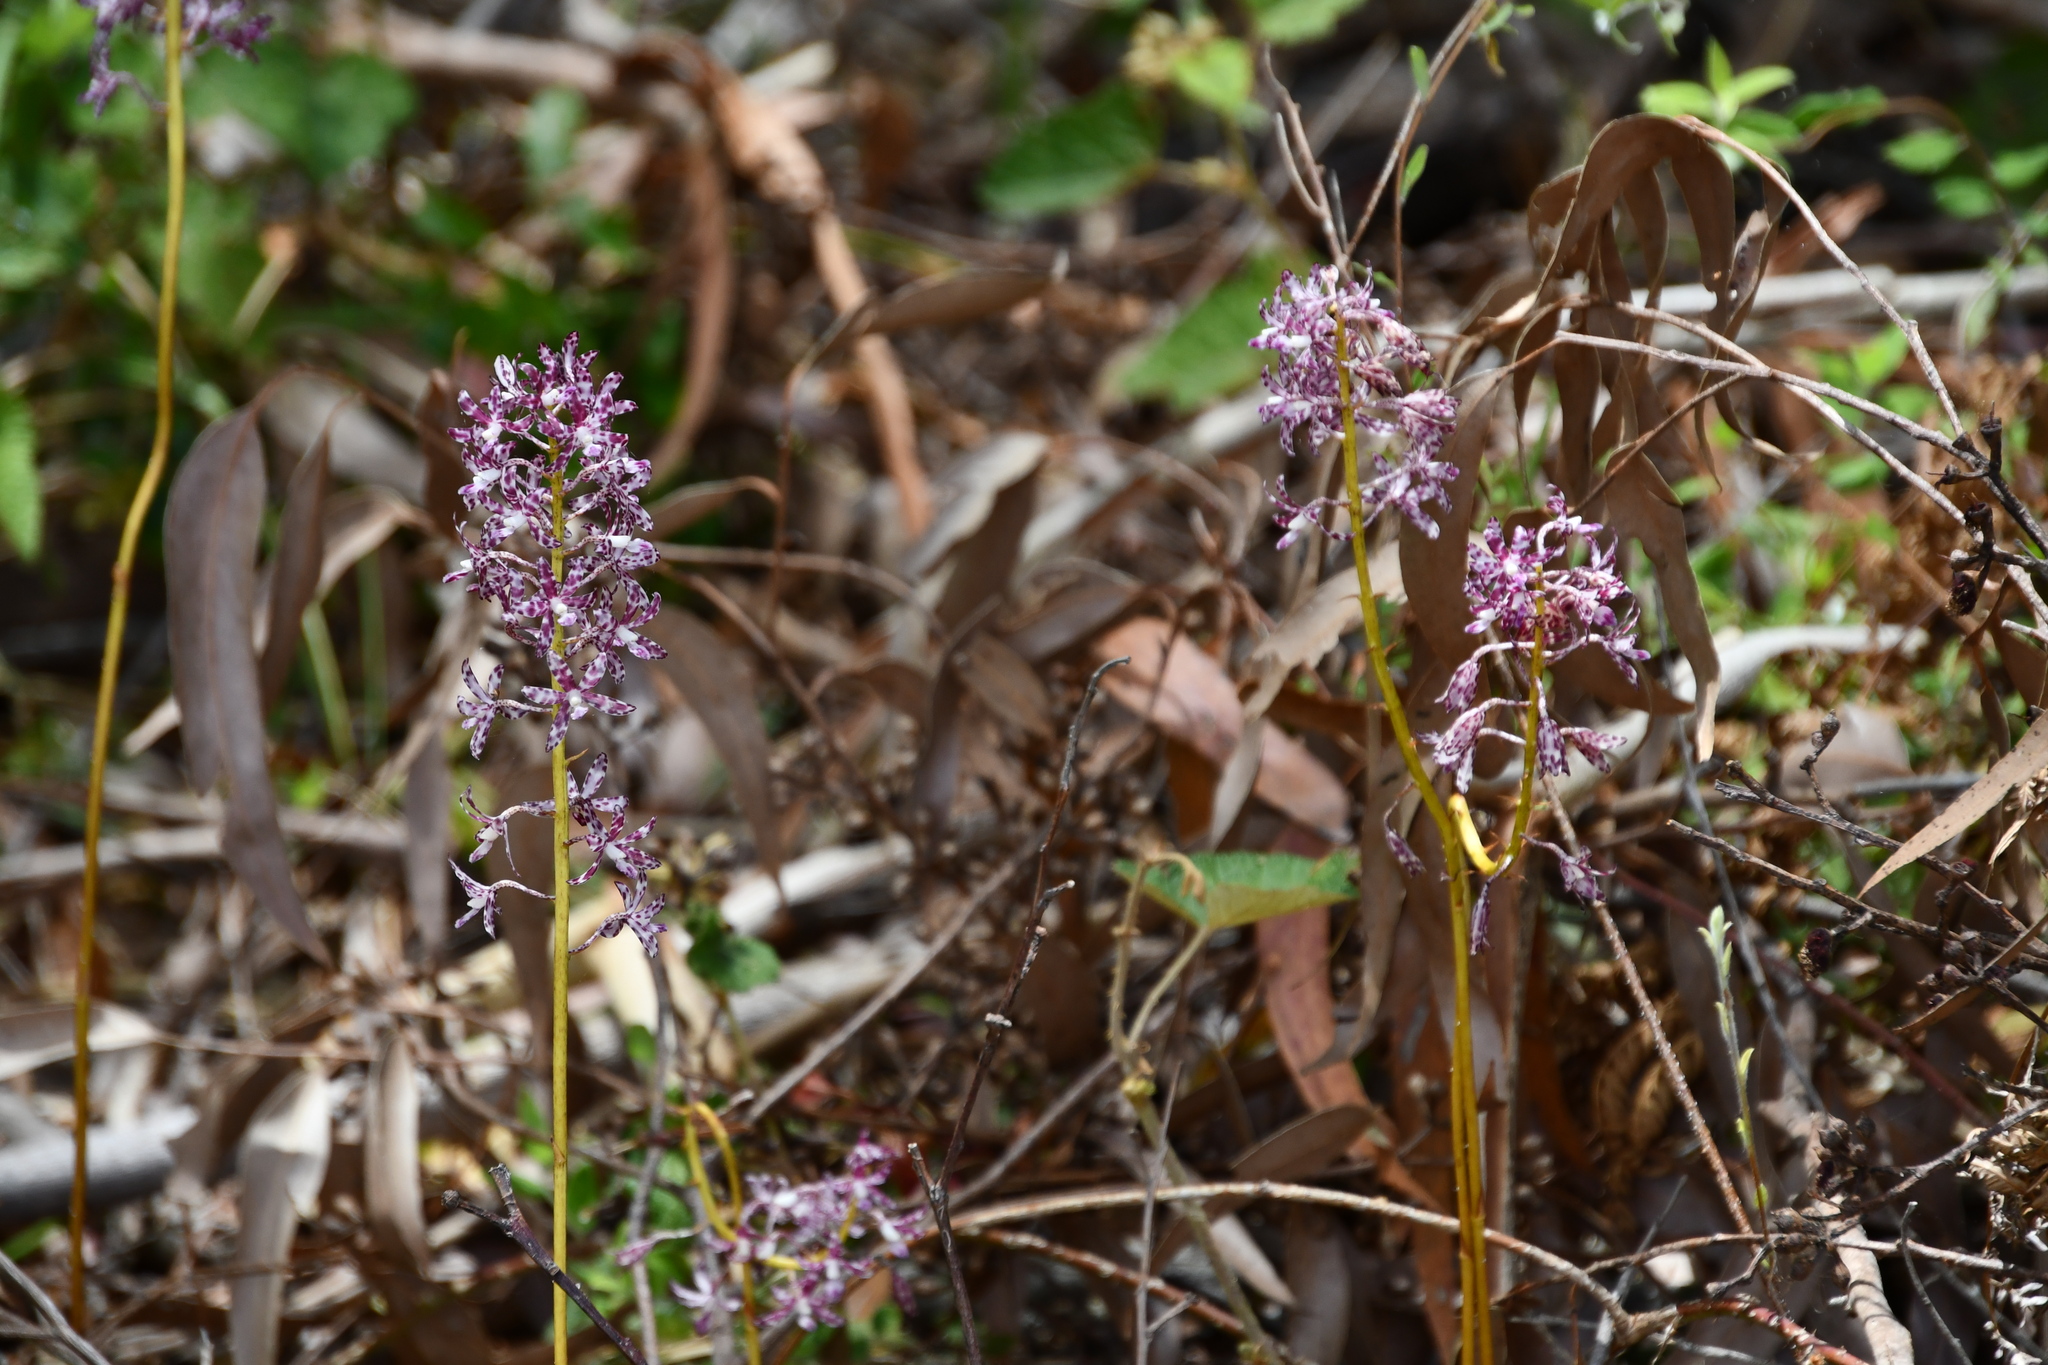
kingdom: Plantae
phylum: Tracheophyta
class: Liliopsida
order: Asparagales
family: Orchidaceae
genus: Dipodium
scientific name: Dipodium variegatum
